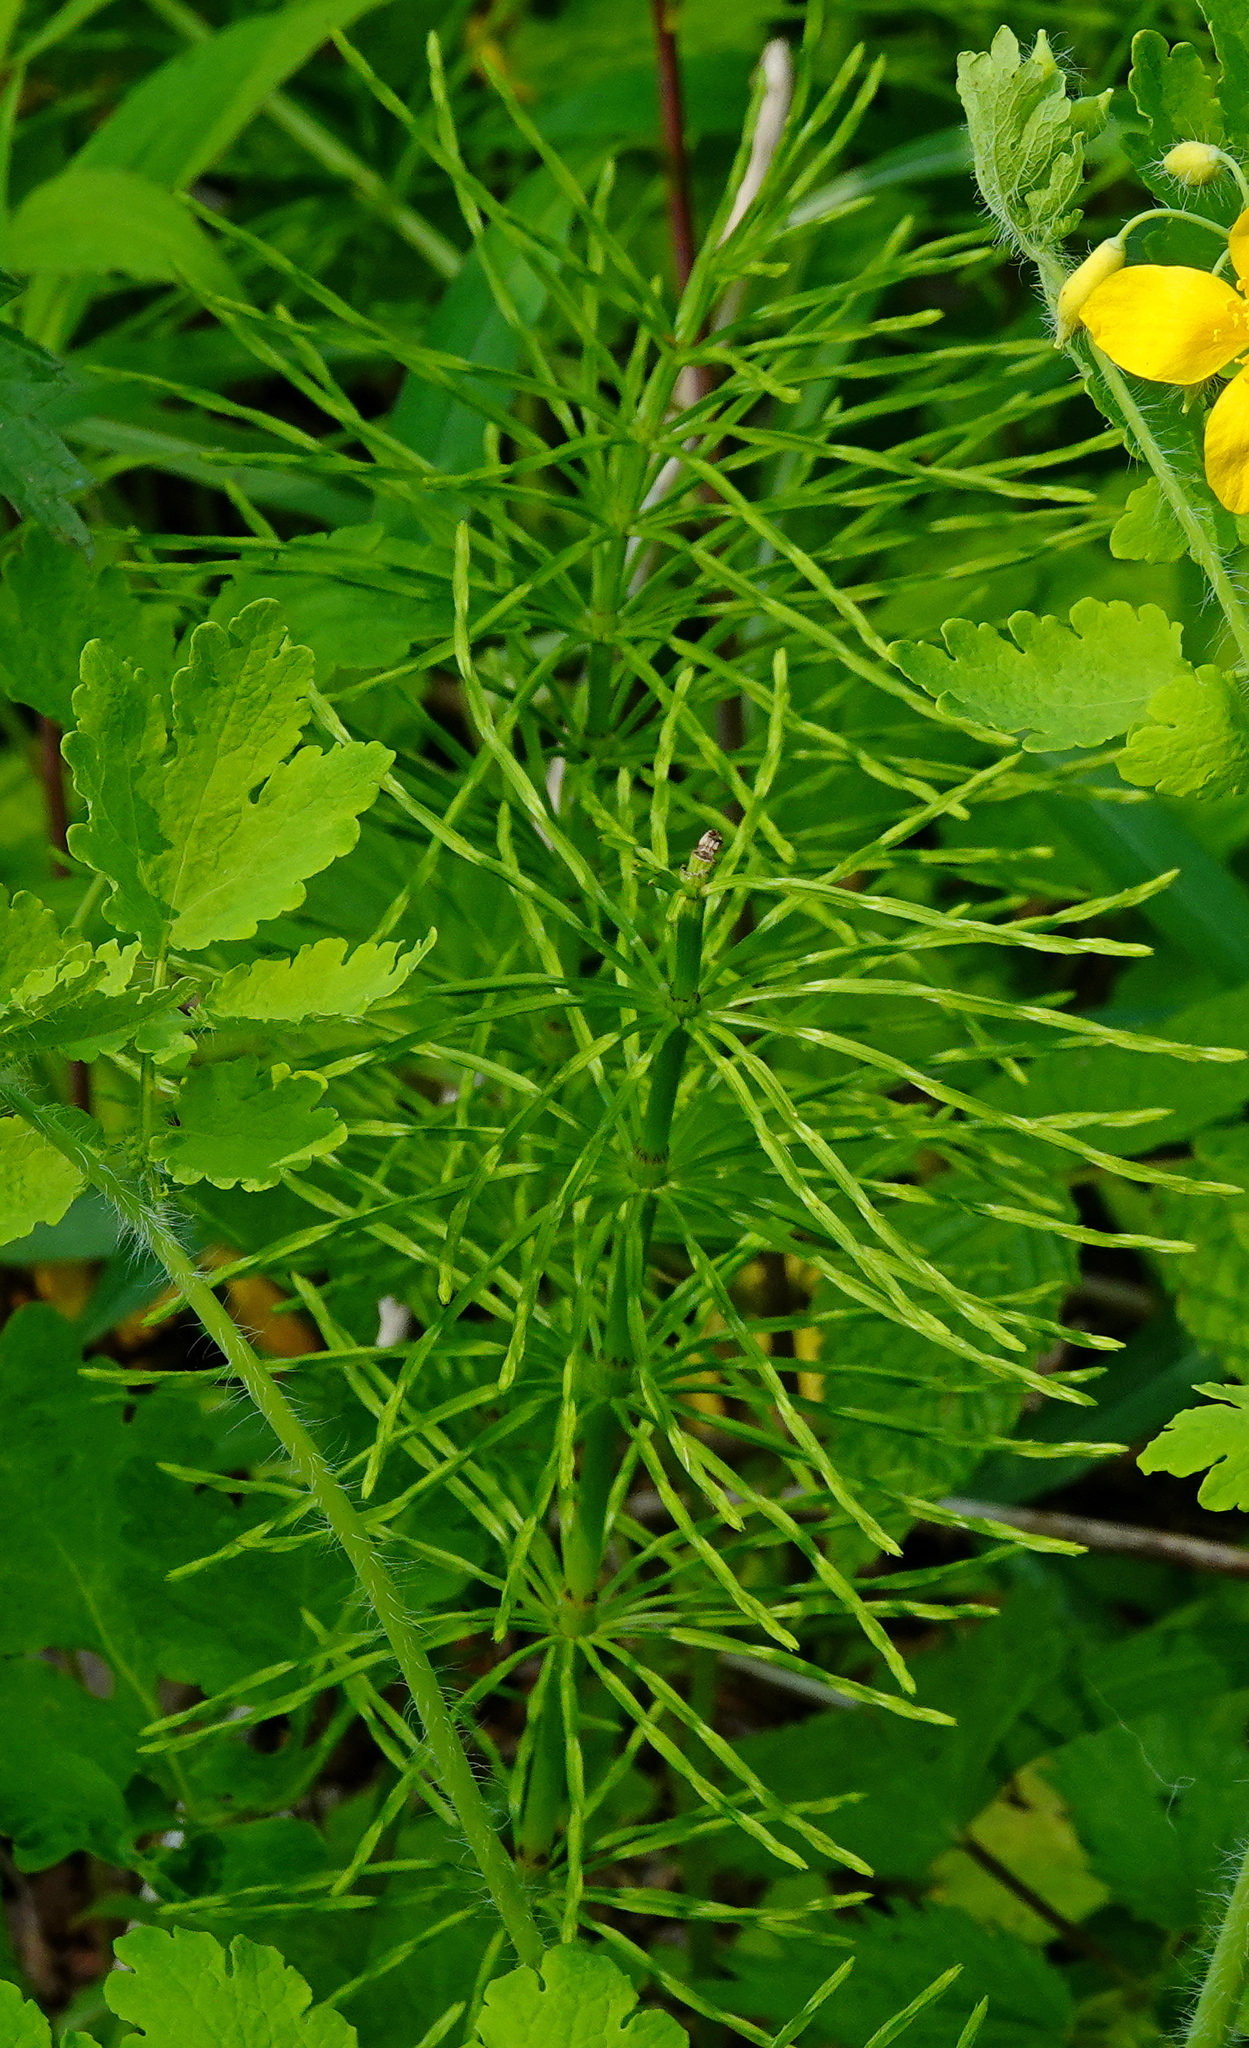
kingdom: Plantae
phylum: Tracheophyta
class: Polypodiopsida
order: Equisetales
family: Equisetaceae
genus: Equisetum
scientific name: Equisetum arvense
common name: Field horsetail
